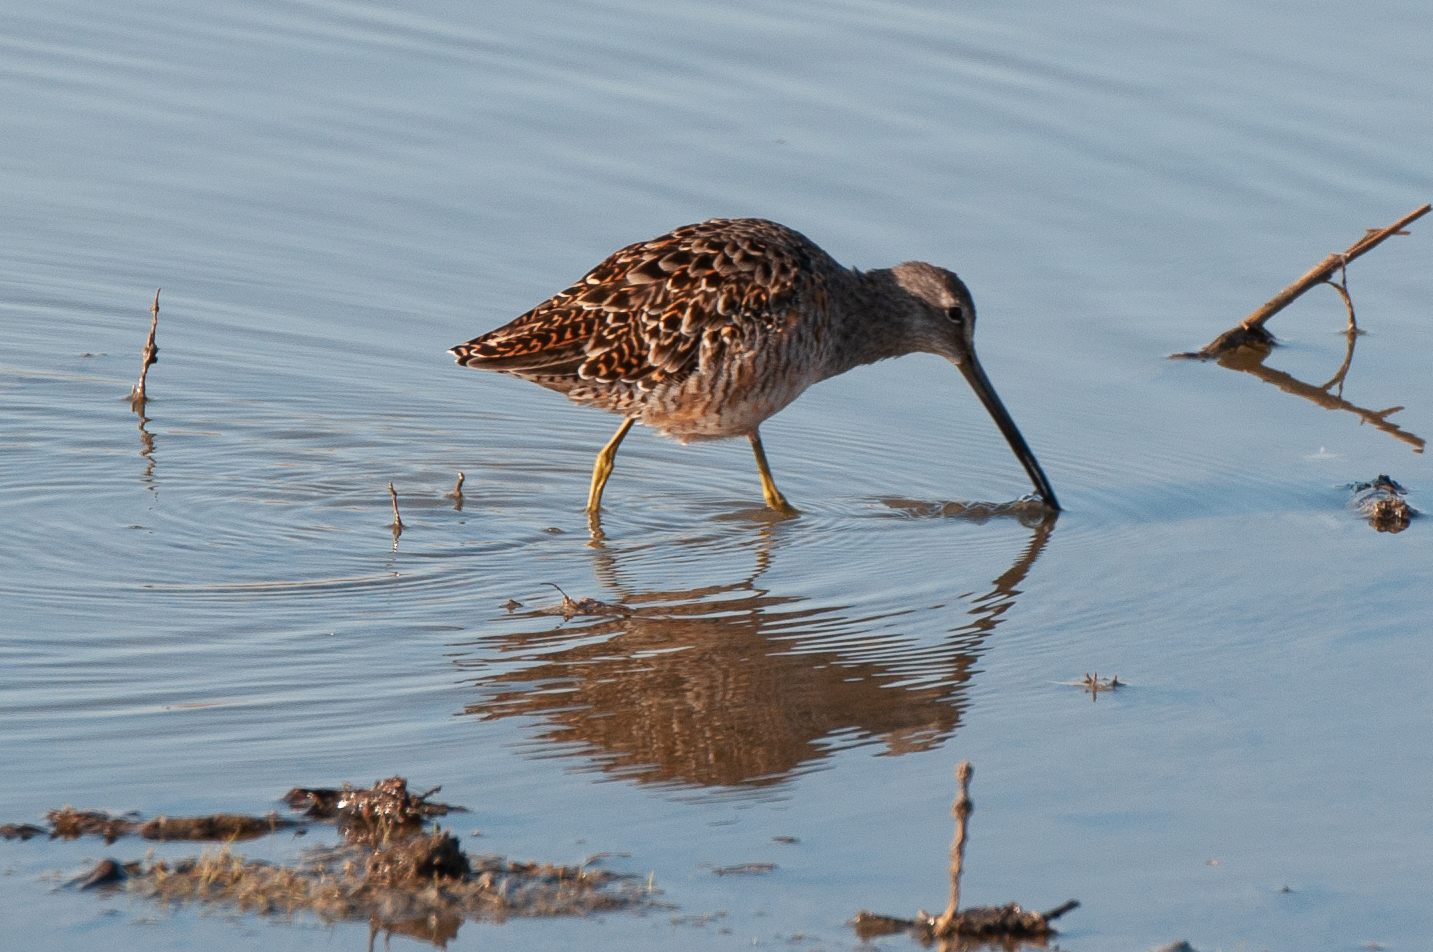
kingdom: Animalia
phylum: Chordata
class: Aves
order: Charadriiformes
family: Scolopacidae
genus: Limnodromus
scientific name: Limnodromus scolopaceus
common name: Long-billed dowitcher
